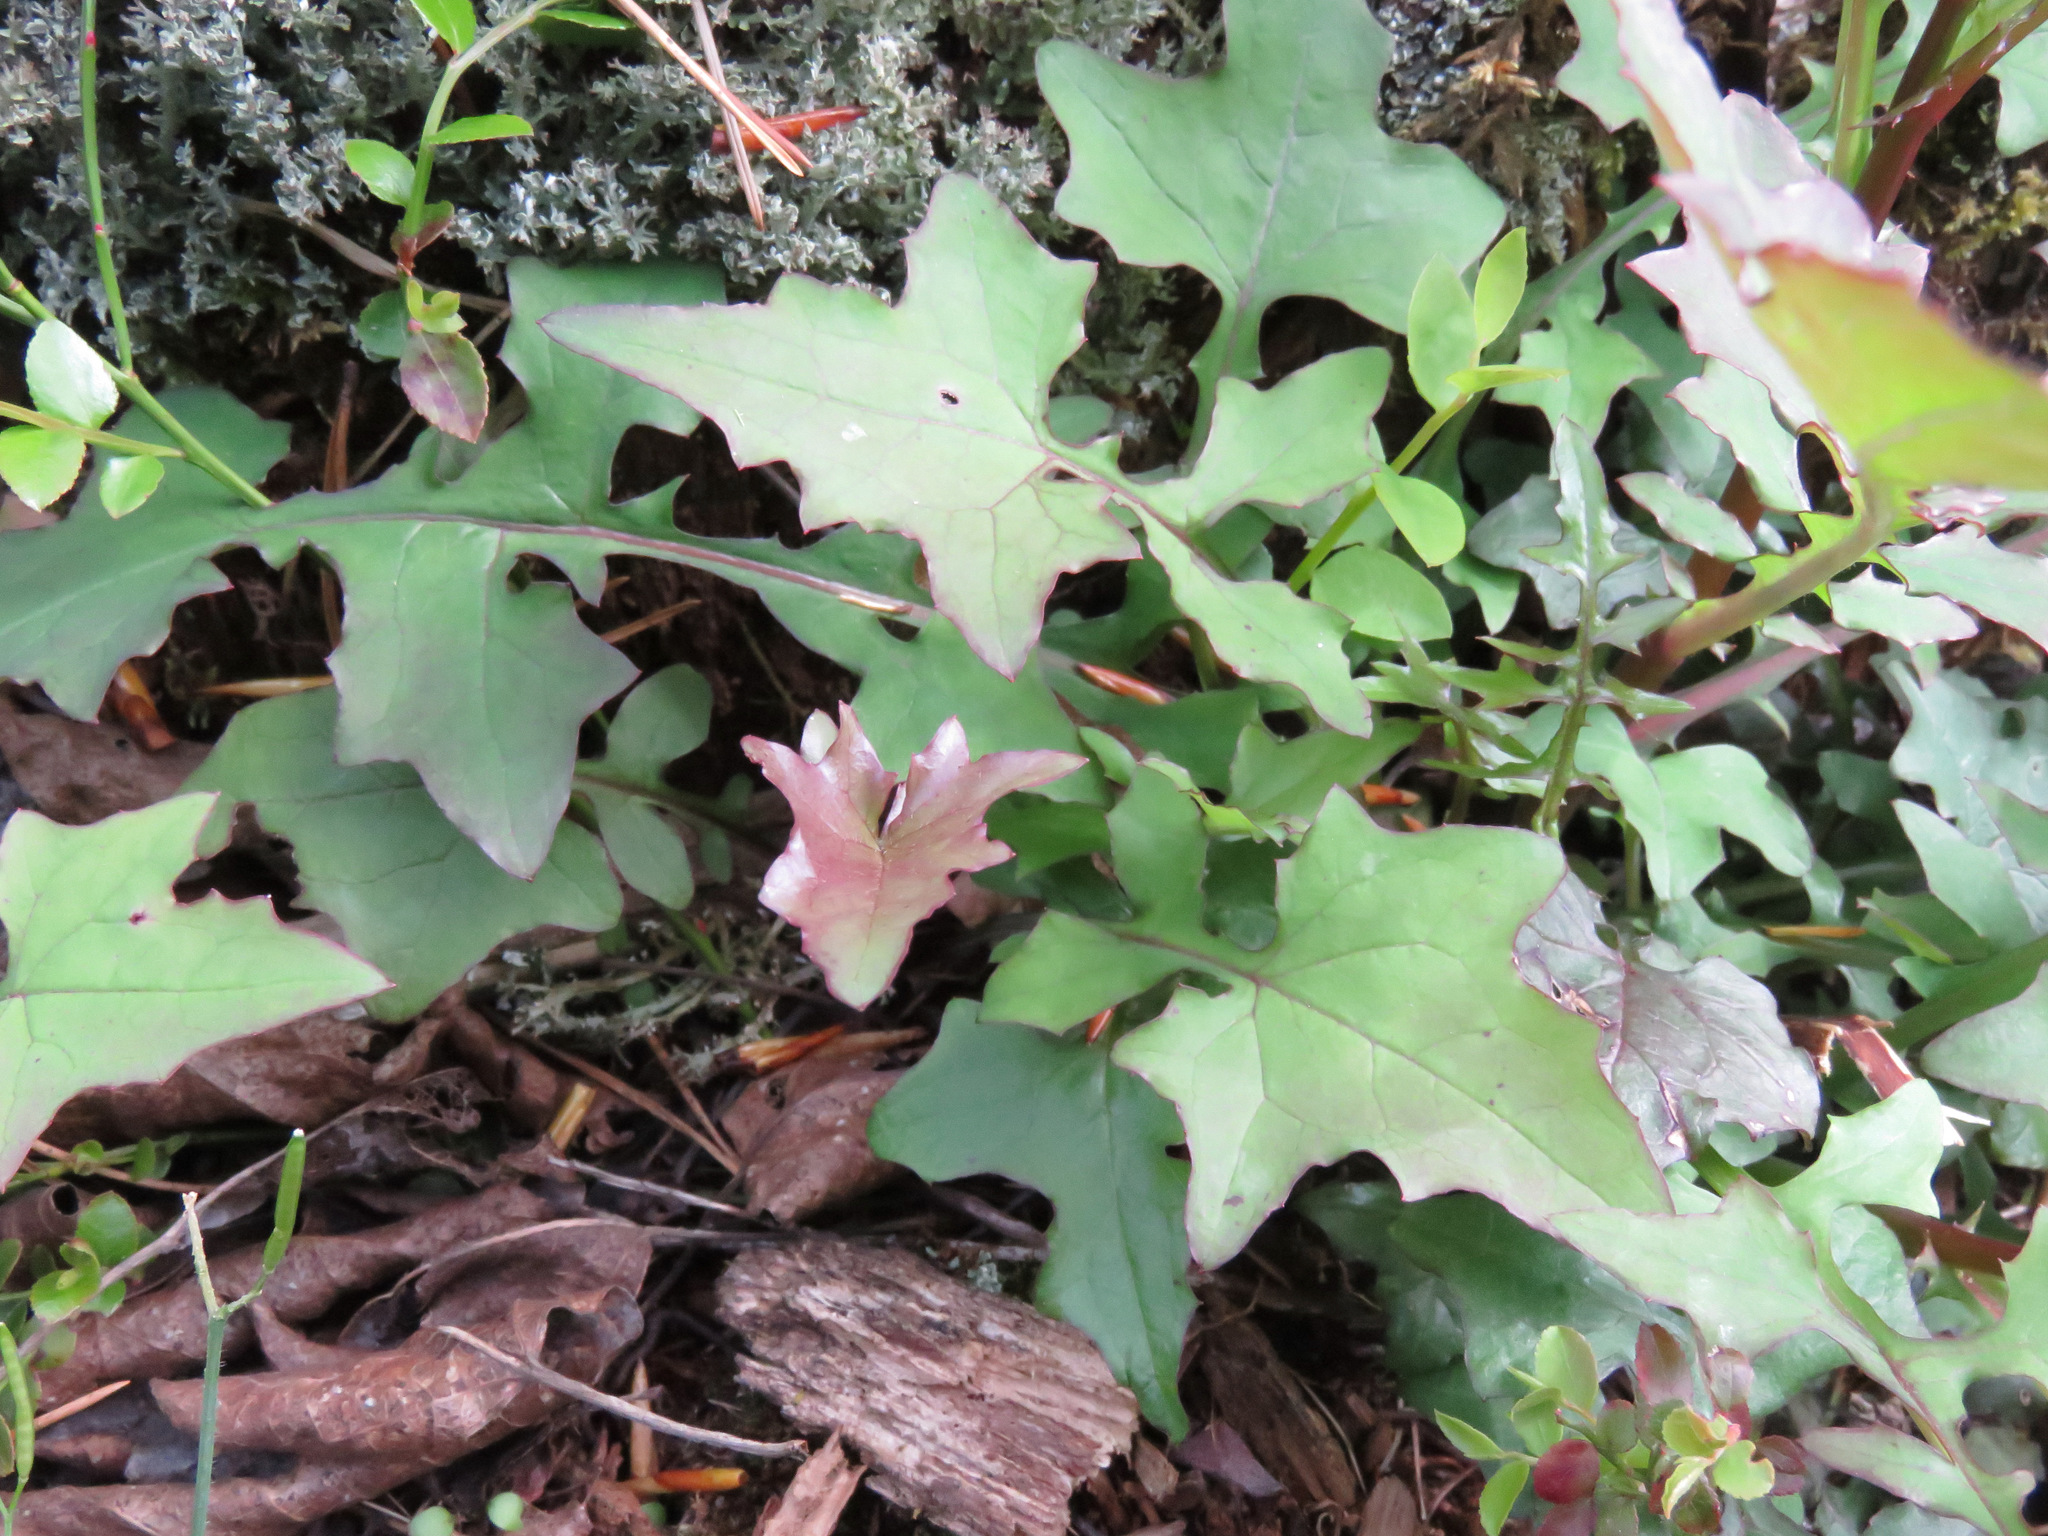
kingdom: Plantae
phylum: Tracheophyta
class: Magnoliopsida
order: Asterales
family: Asteraceae
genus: Mycelis
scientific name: Mycelis muralis
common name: Wall lettuce
